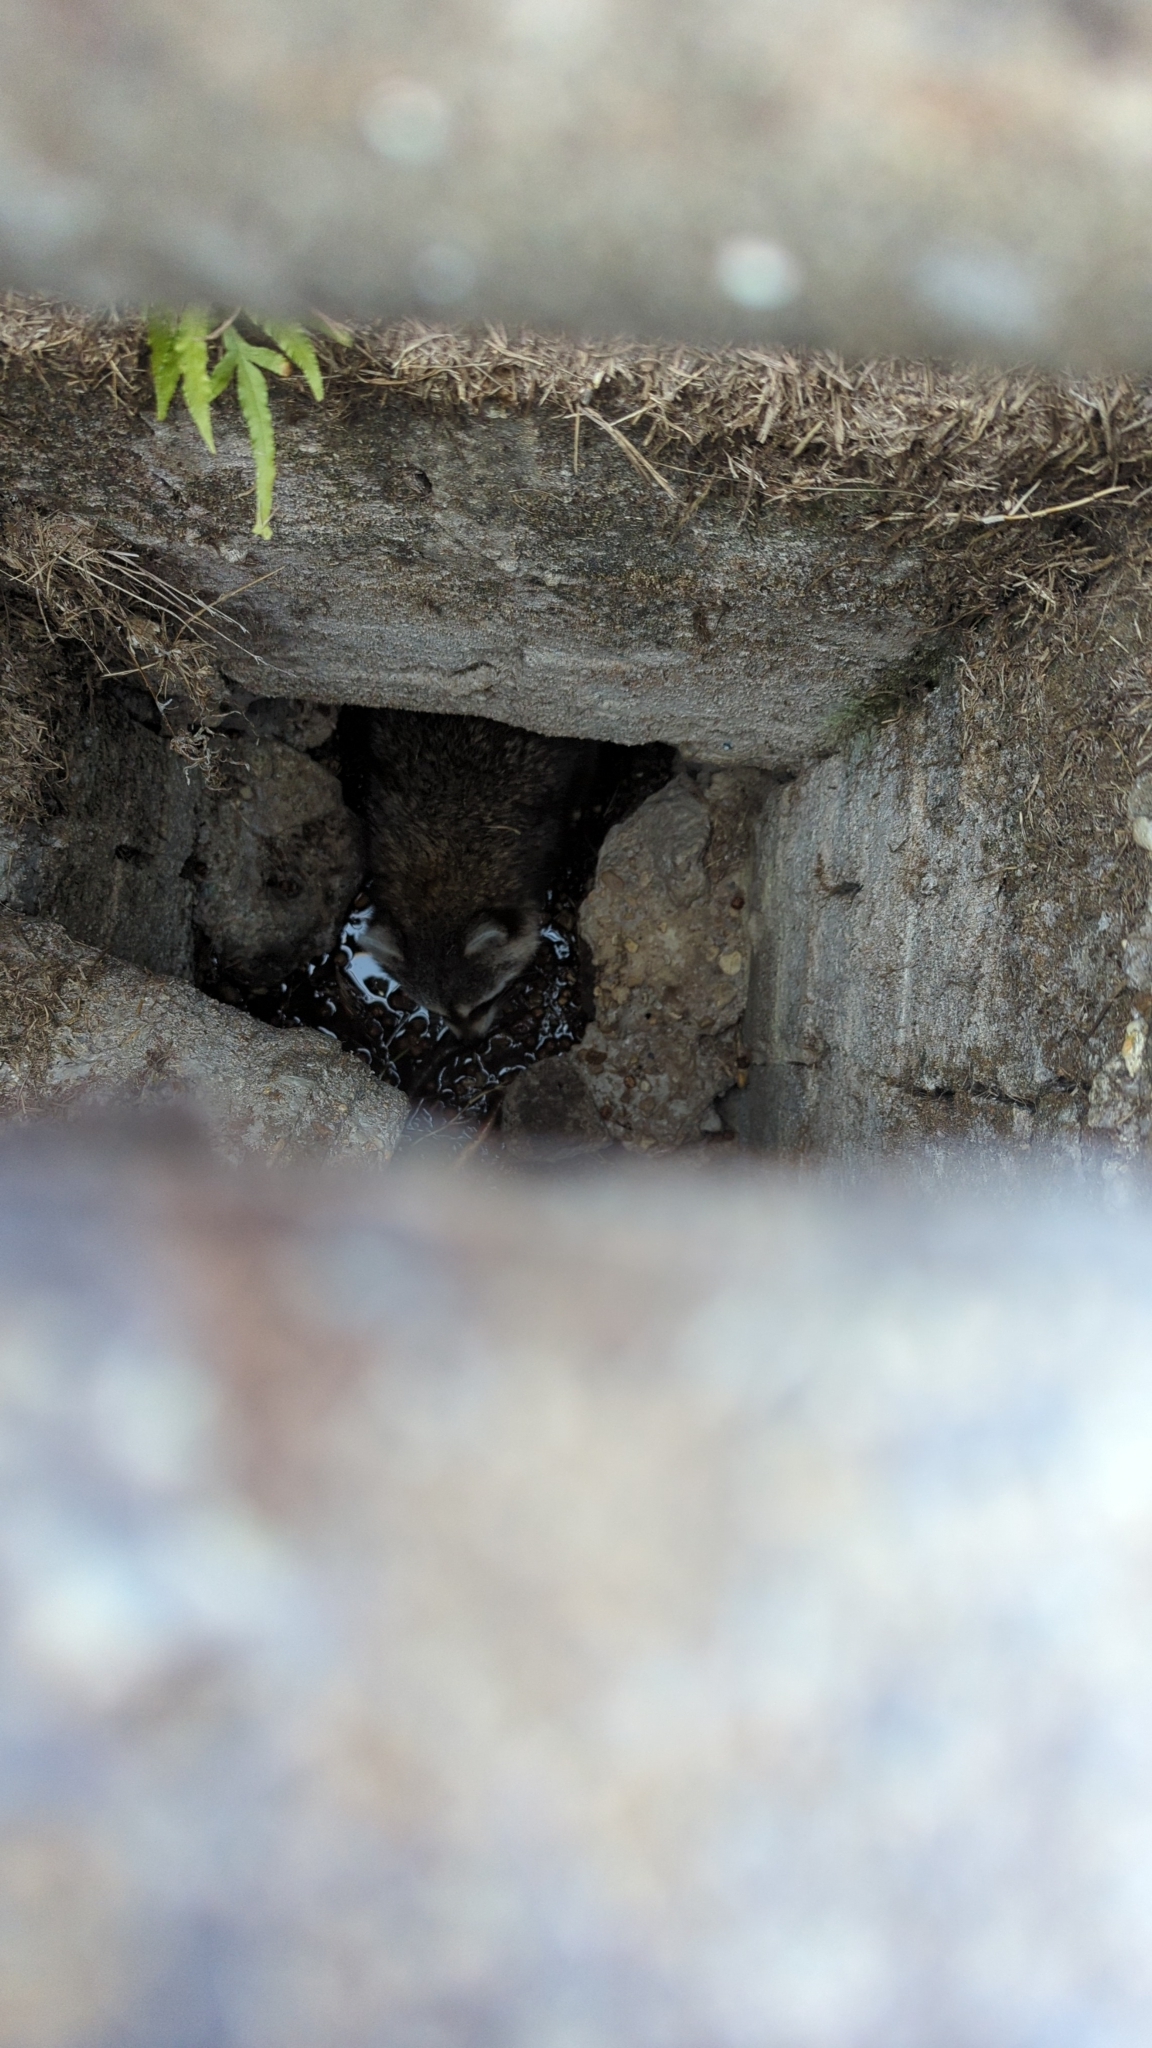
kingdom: Animalia
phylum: Chordata
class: Mammalia
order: Carnivora
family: Procyonidae
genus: Procyon
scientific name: Procyon lotor
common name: Raccoon
